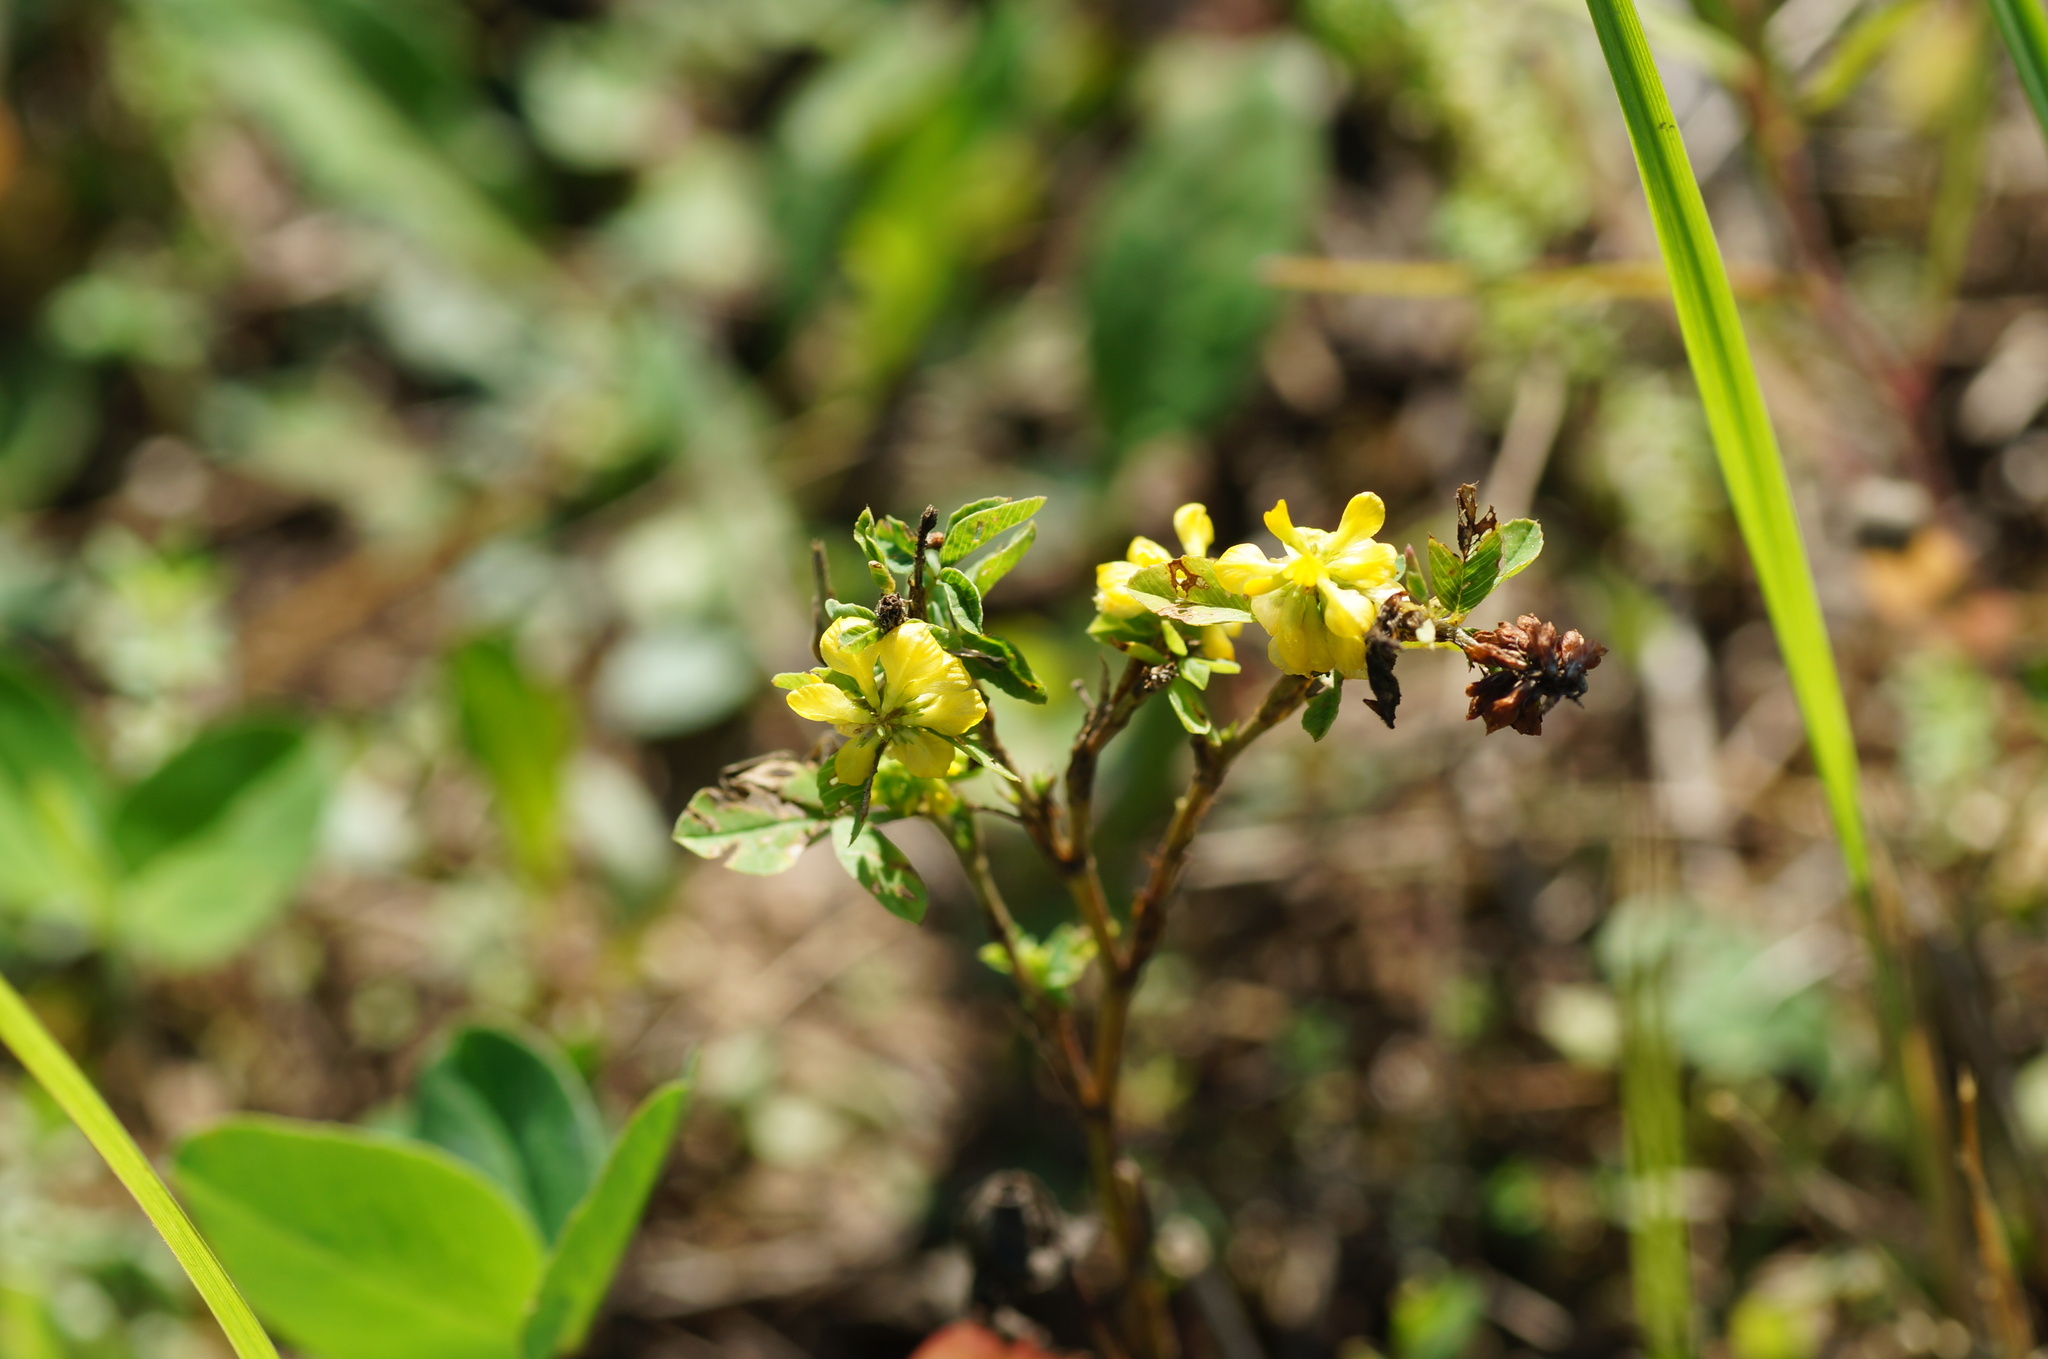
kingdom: Plantae
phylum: Tracheophyta
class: Magnoliopsida
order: Fabales
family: Fabaceae
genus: Trifolium
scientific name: Trifolium aureum
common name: Golden clover
